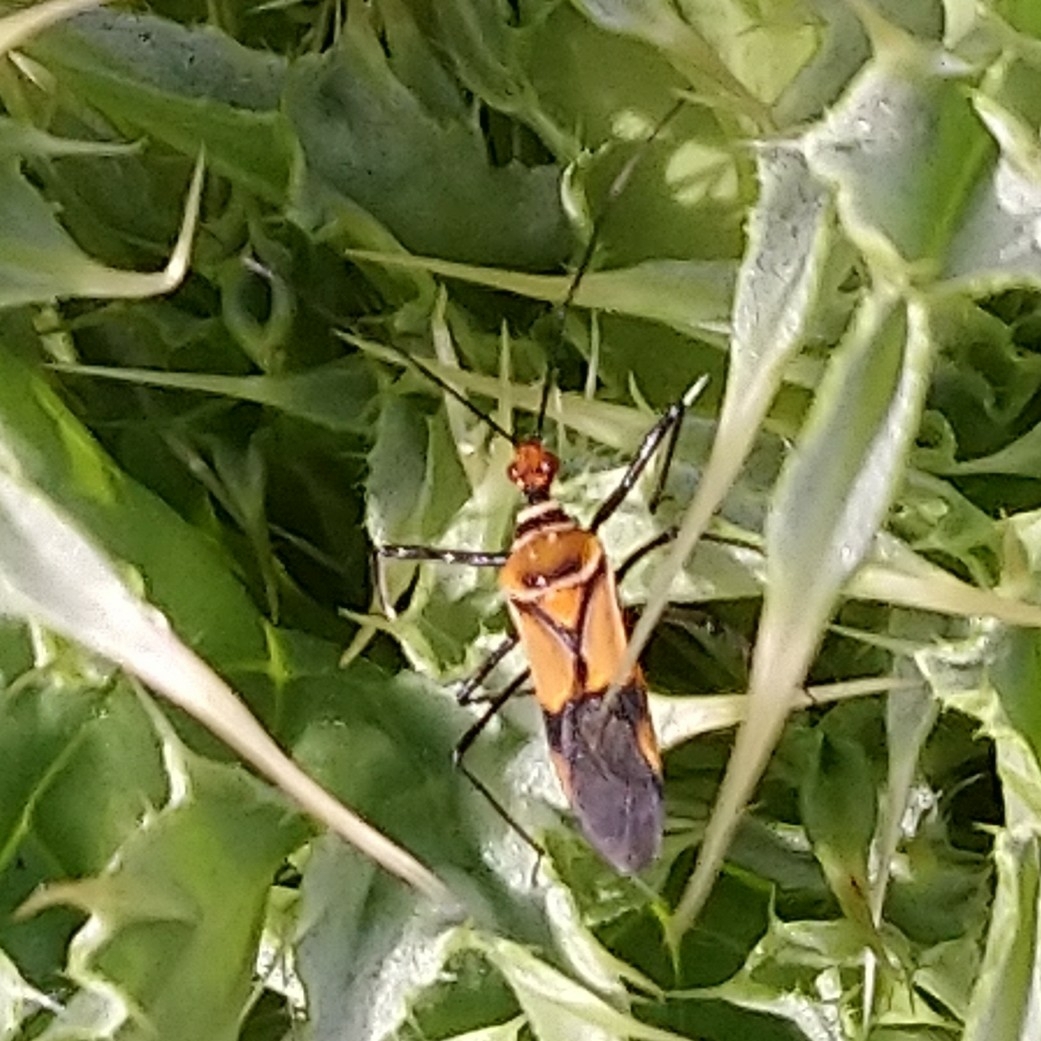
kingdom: Animalia
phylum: Arthropoda
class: Insecta
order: Hemiptera
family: Reduviidae
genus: Hediocoris
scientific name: Hediocoris tibialis
